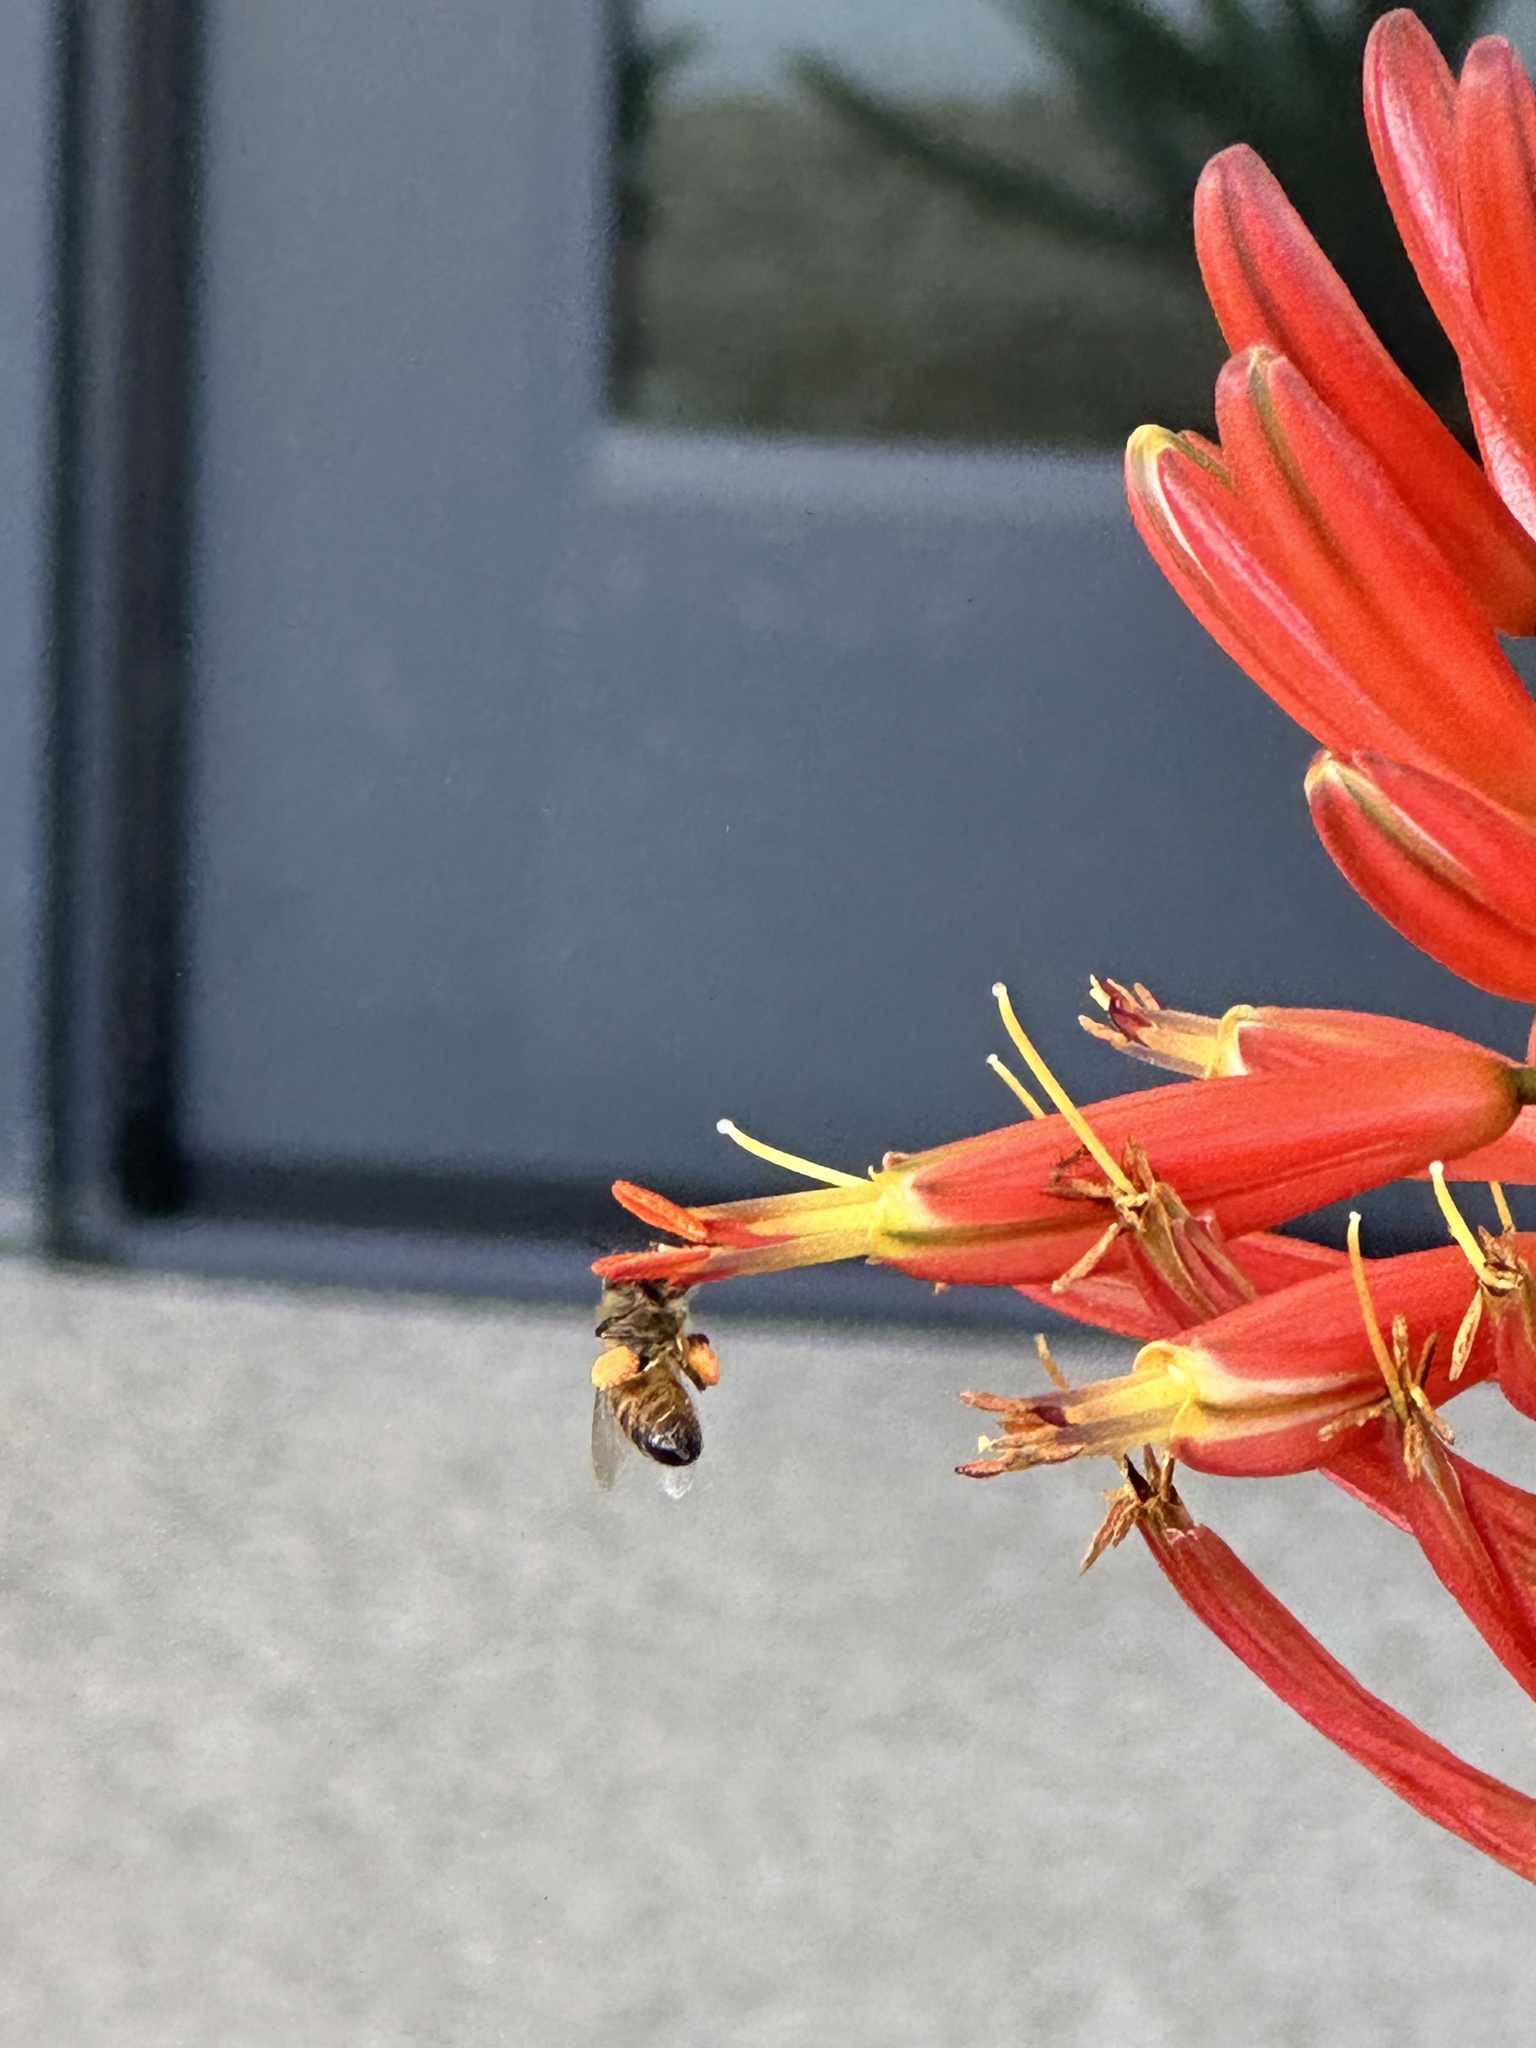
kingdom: Animalia
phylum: Arthropoda
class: Insecta
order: Hymenoptera
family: Apidae
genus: Apis
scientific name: Apis mellifera
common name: Honey bee
